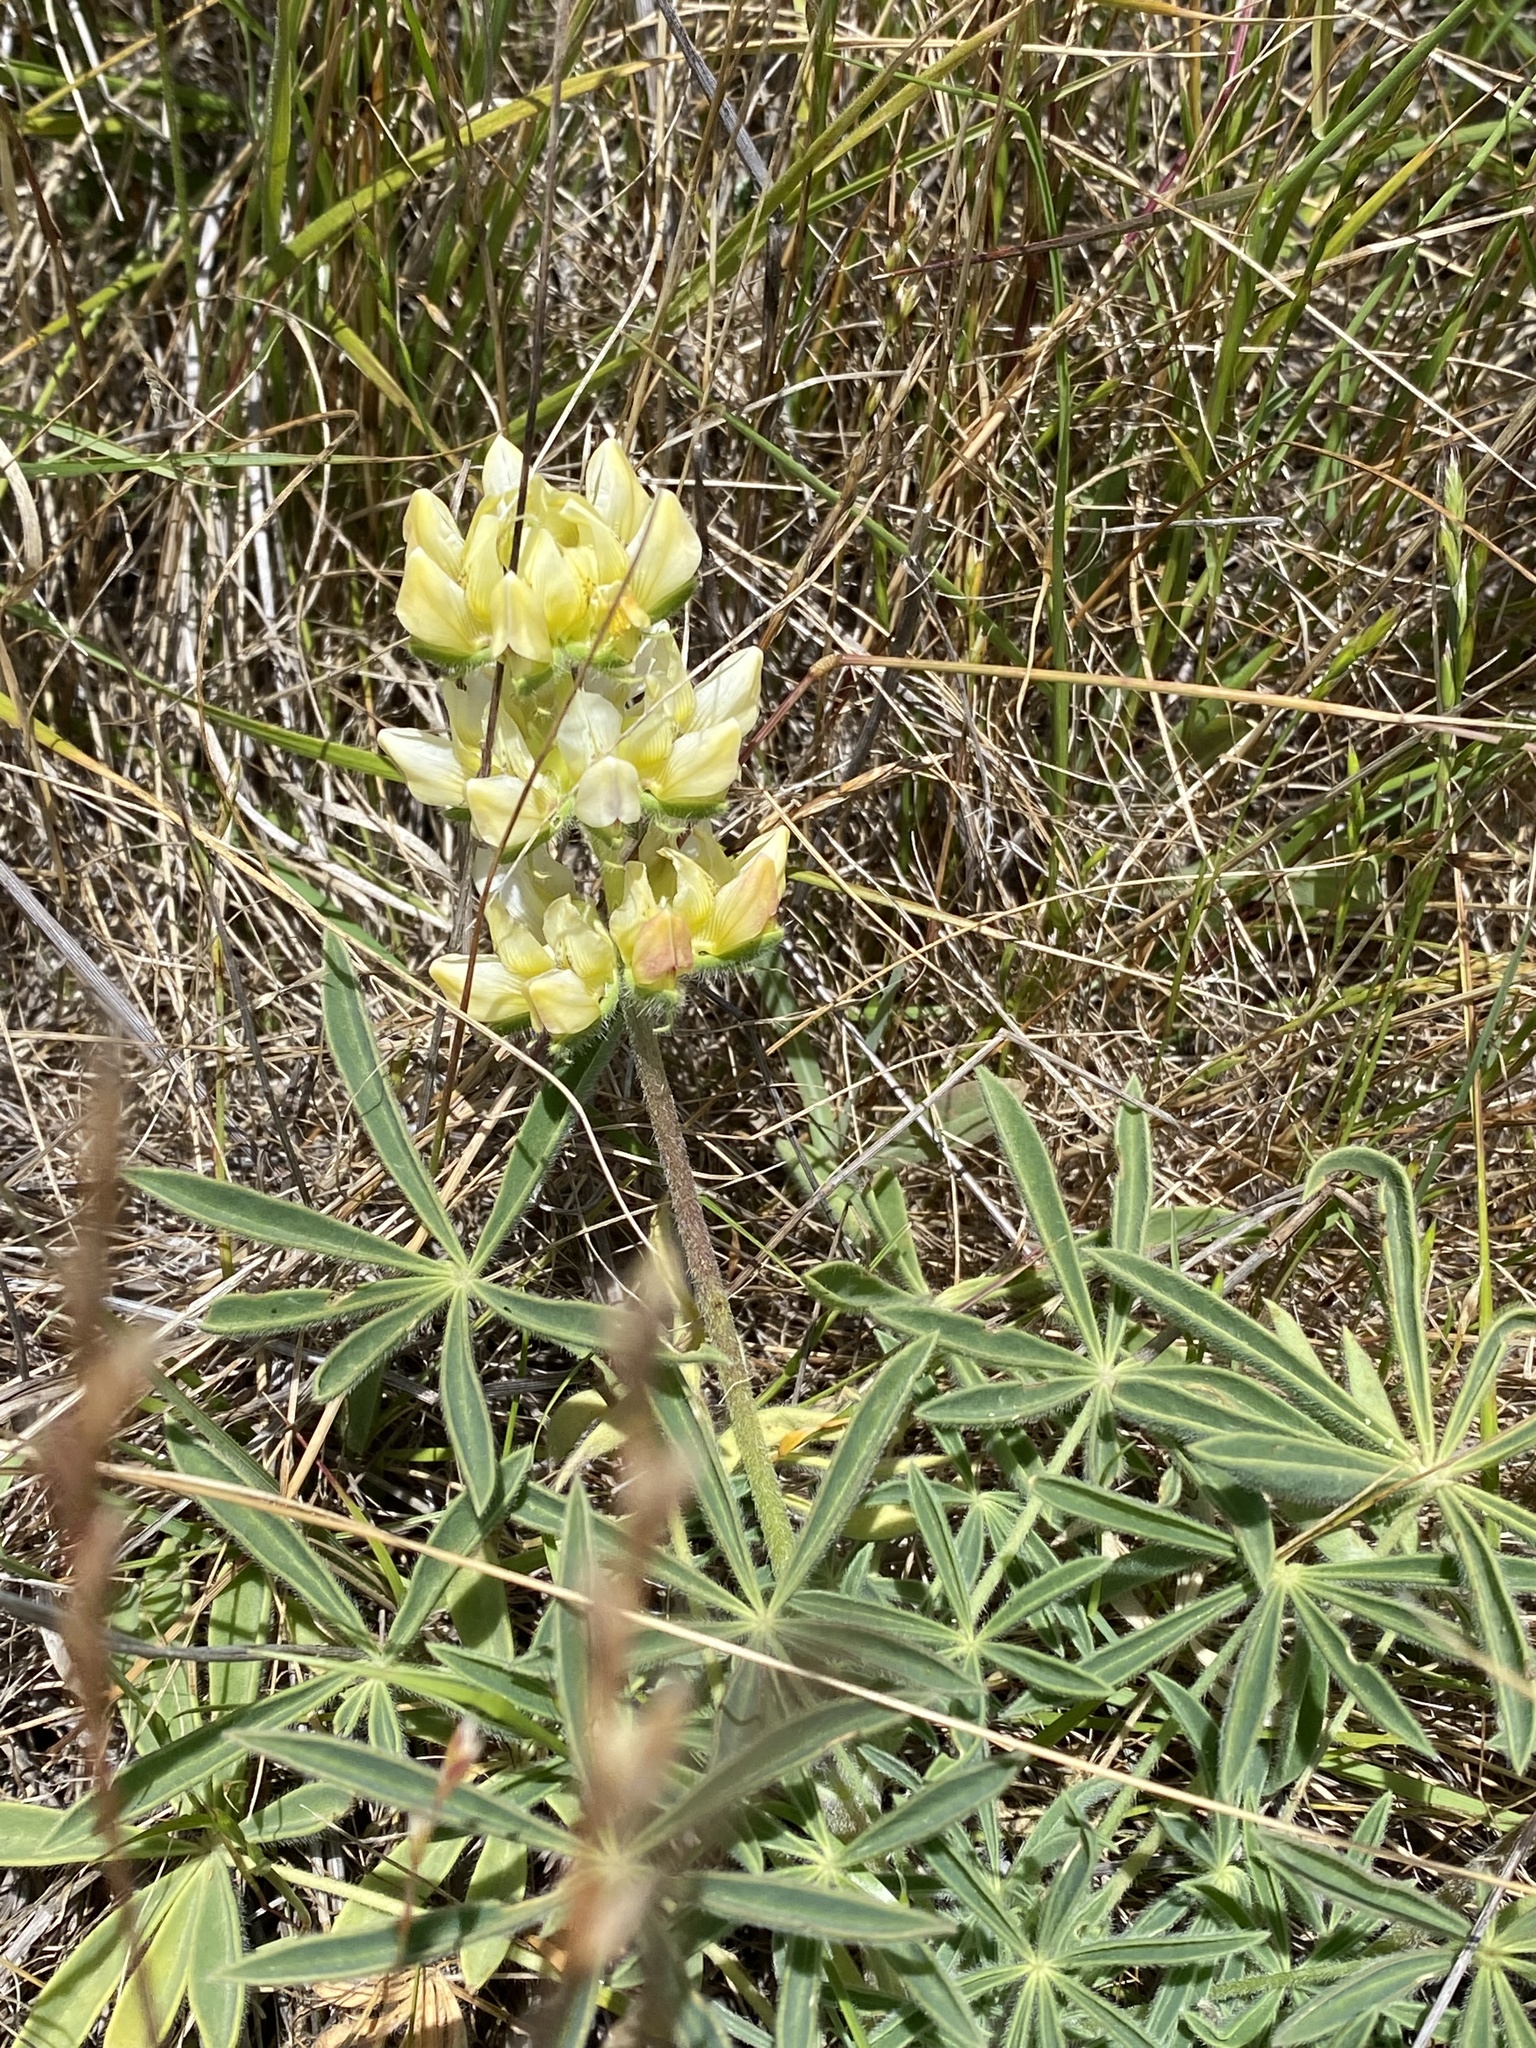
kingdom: Plantae
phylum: Tracheophyta
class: Magnoliopsida
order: Fabales
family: Fabaceae
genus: Lupinus
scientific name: Lupinus microcarpus
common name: Chick lupine
